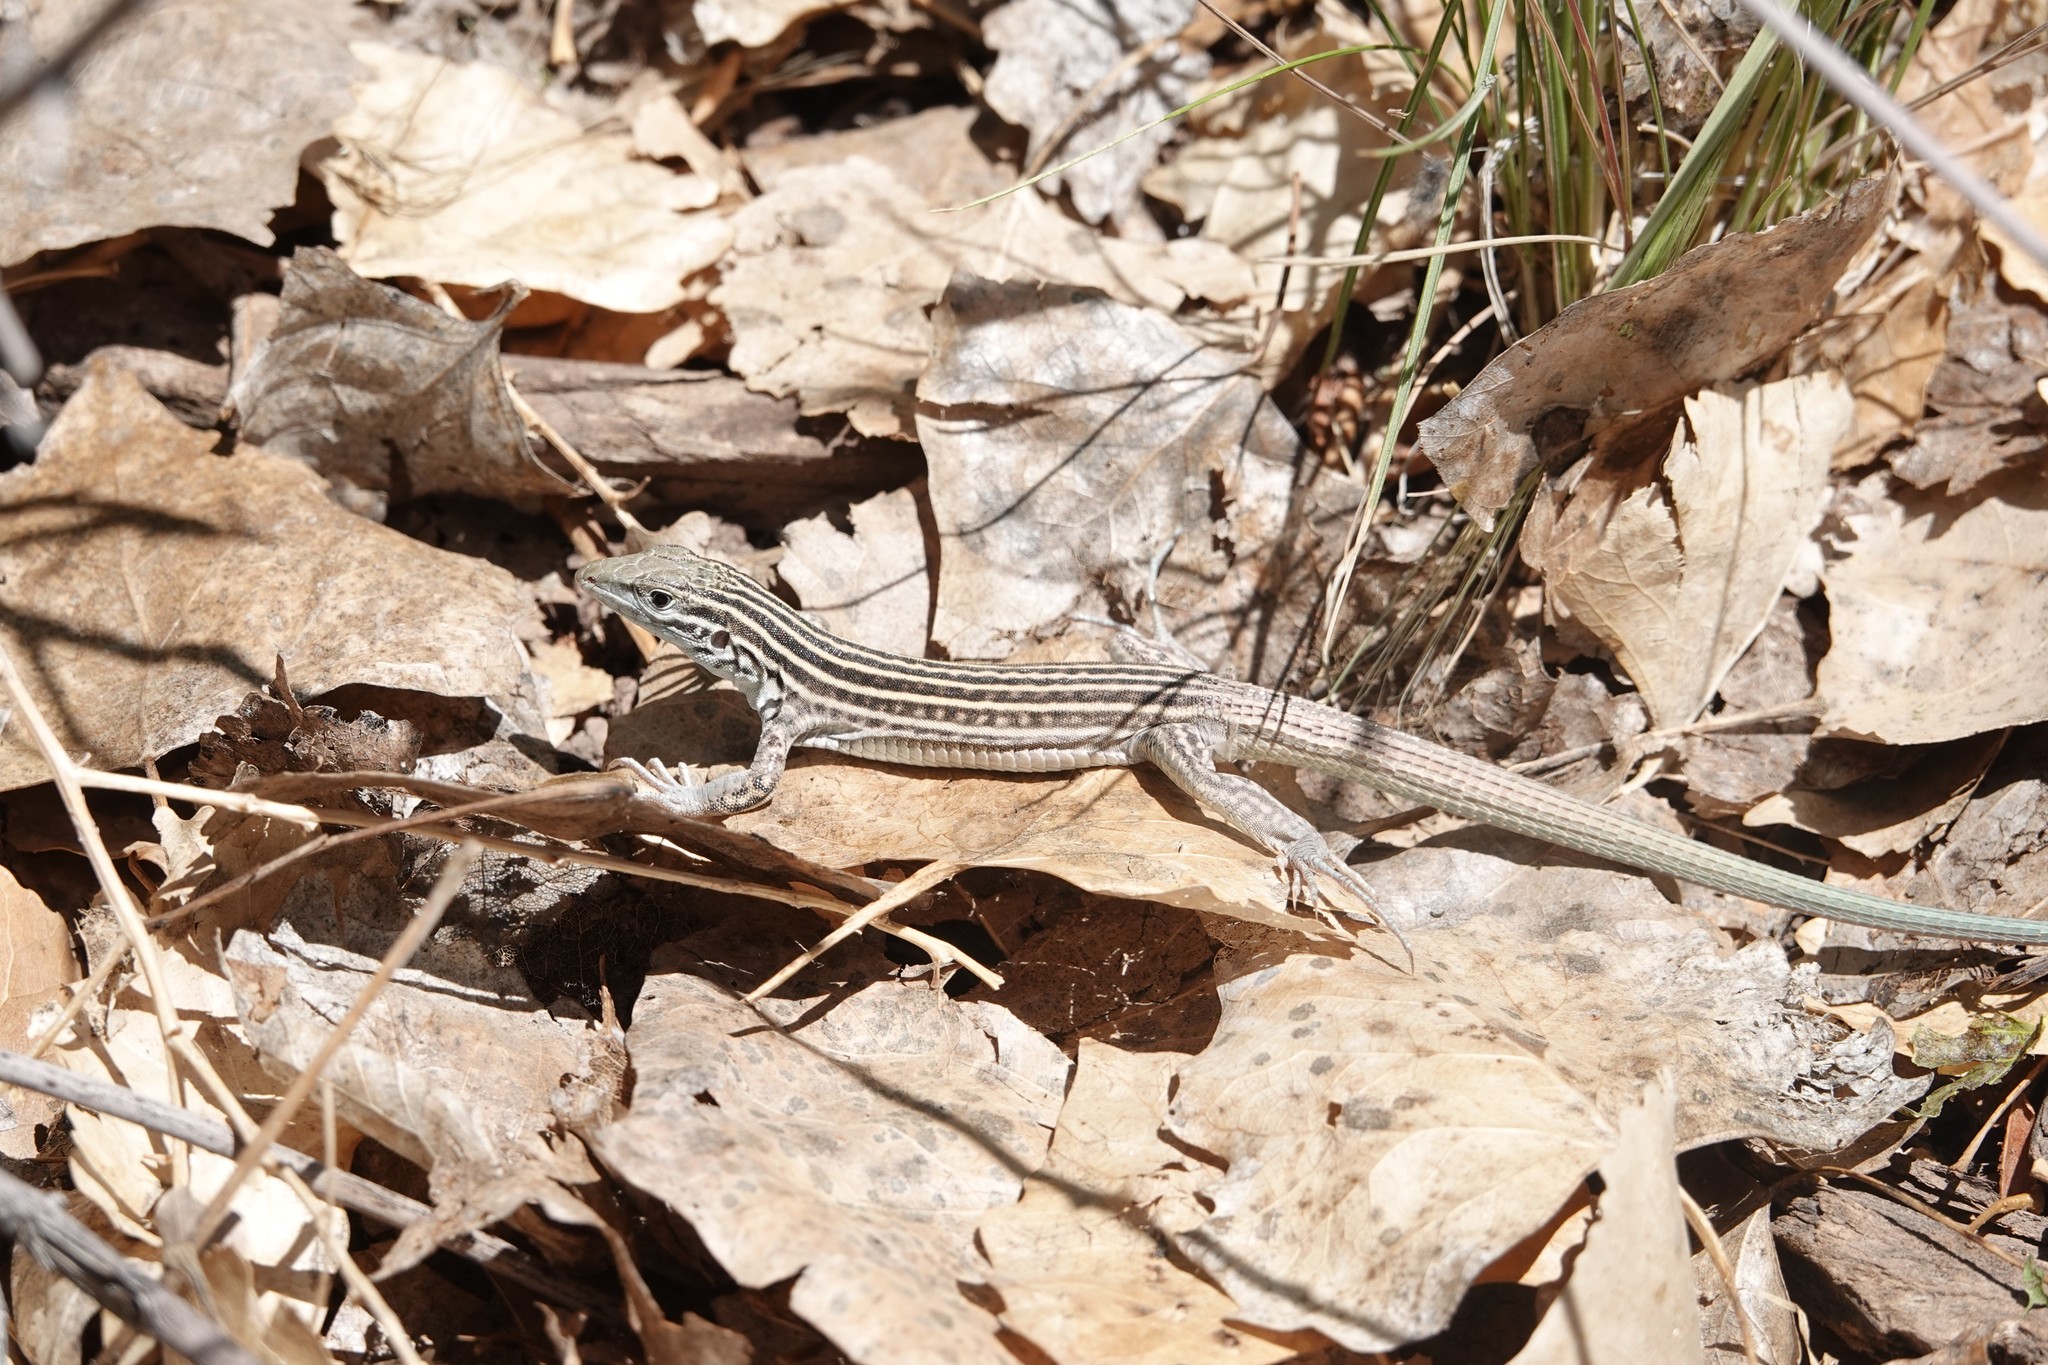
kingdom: Animalia
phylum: Chordata
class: Squamata
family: Teiidae
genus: Aspidoscelis
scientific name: Aspidoscelis neomexicanus
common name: New mexico whiptail
